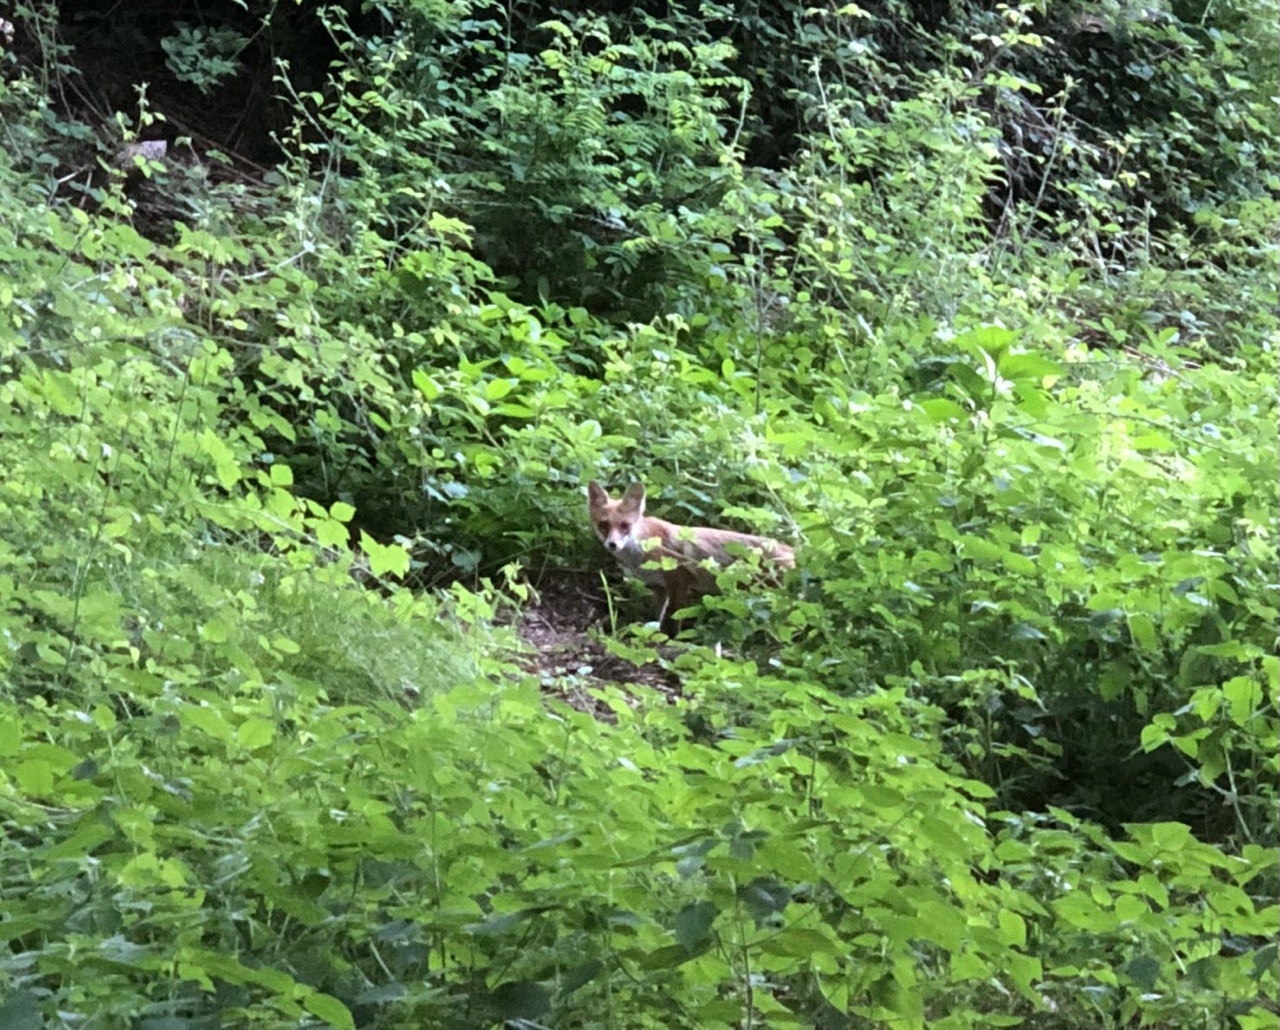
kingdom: Animalia
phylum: Chordata
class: Mammalia
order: Carnivora
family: Canidae
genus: Vulpes
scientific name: Vulpes vulpes
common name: Red fox
